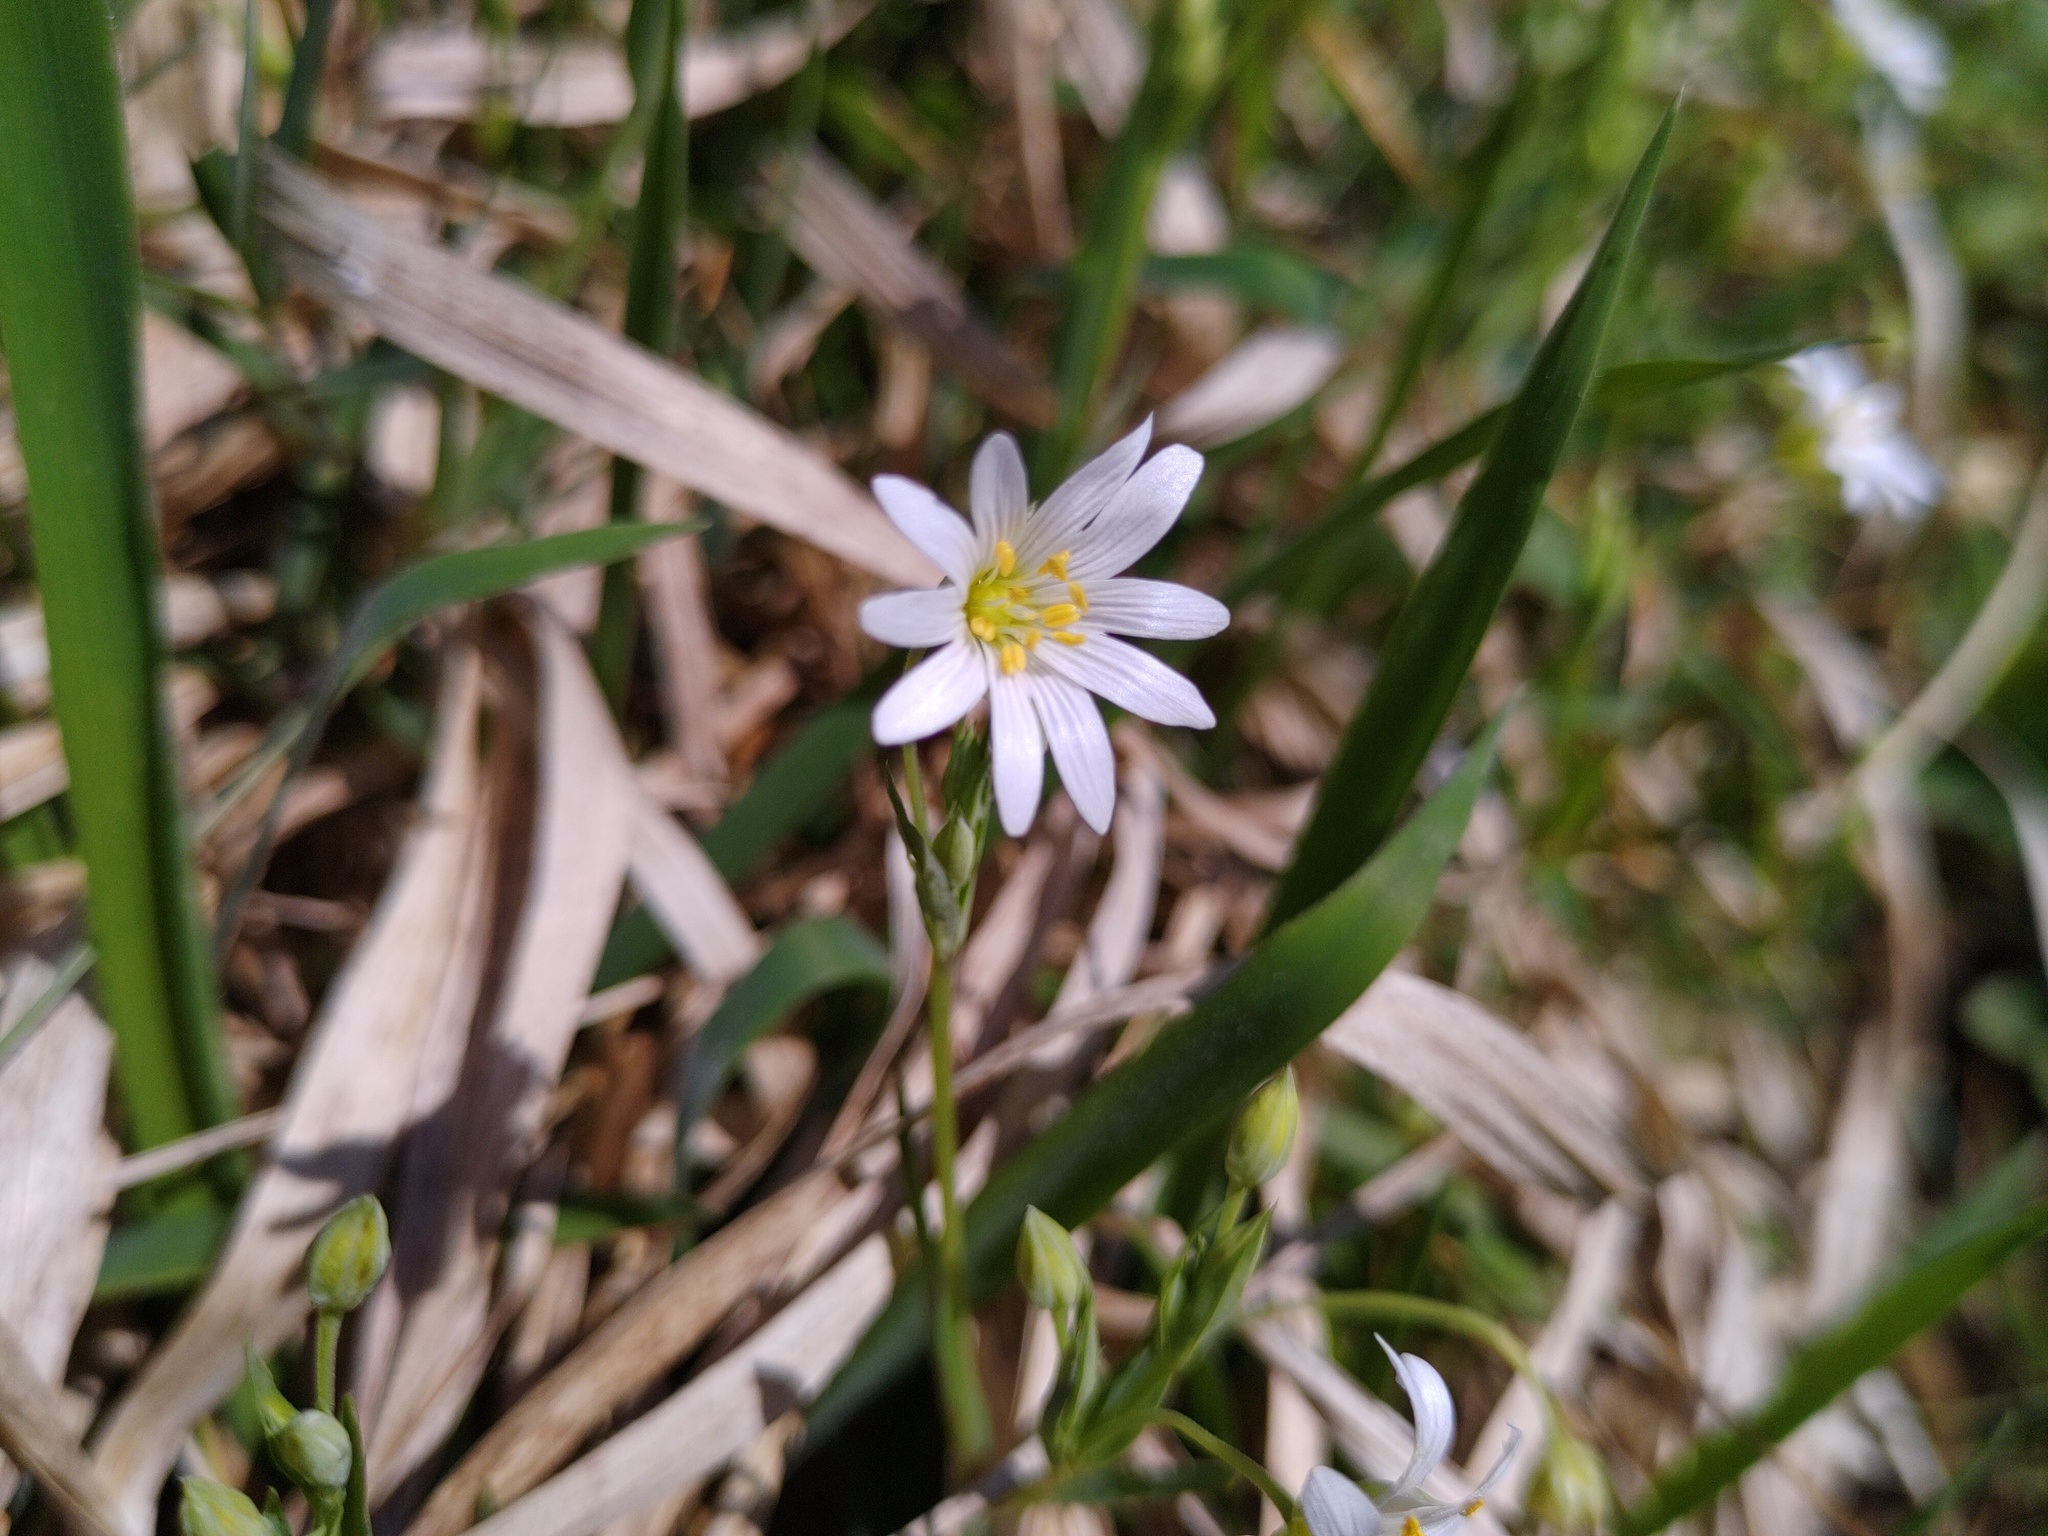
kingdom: Plantae
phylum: Tracheophyta
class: Magnoliopsida
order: Caryophyllales
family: Caryophyllaceae
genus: Rabelera
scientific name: Rabelera holostea
